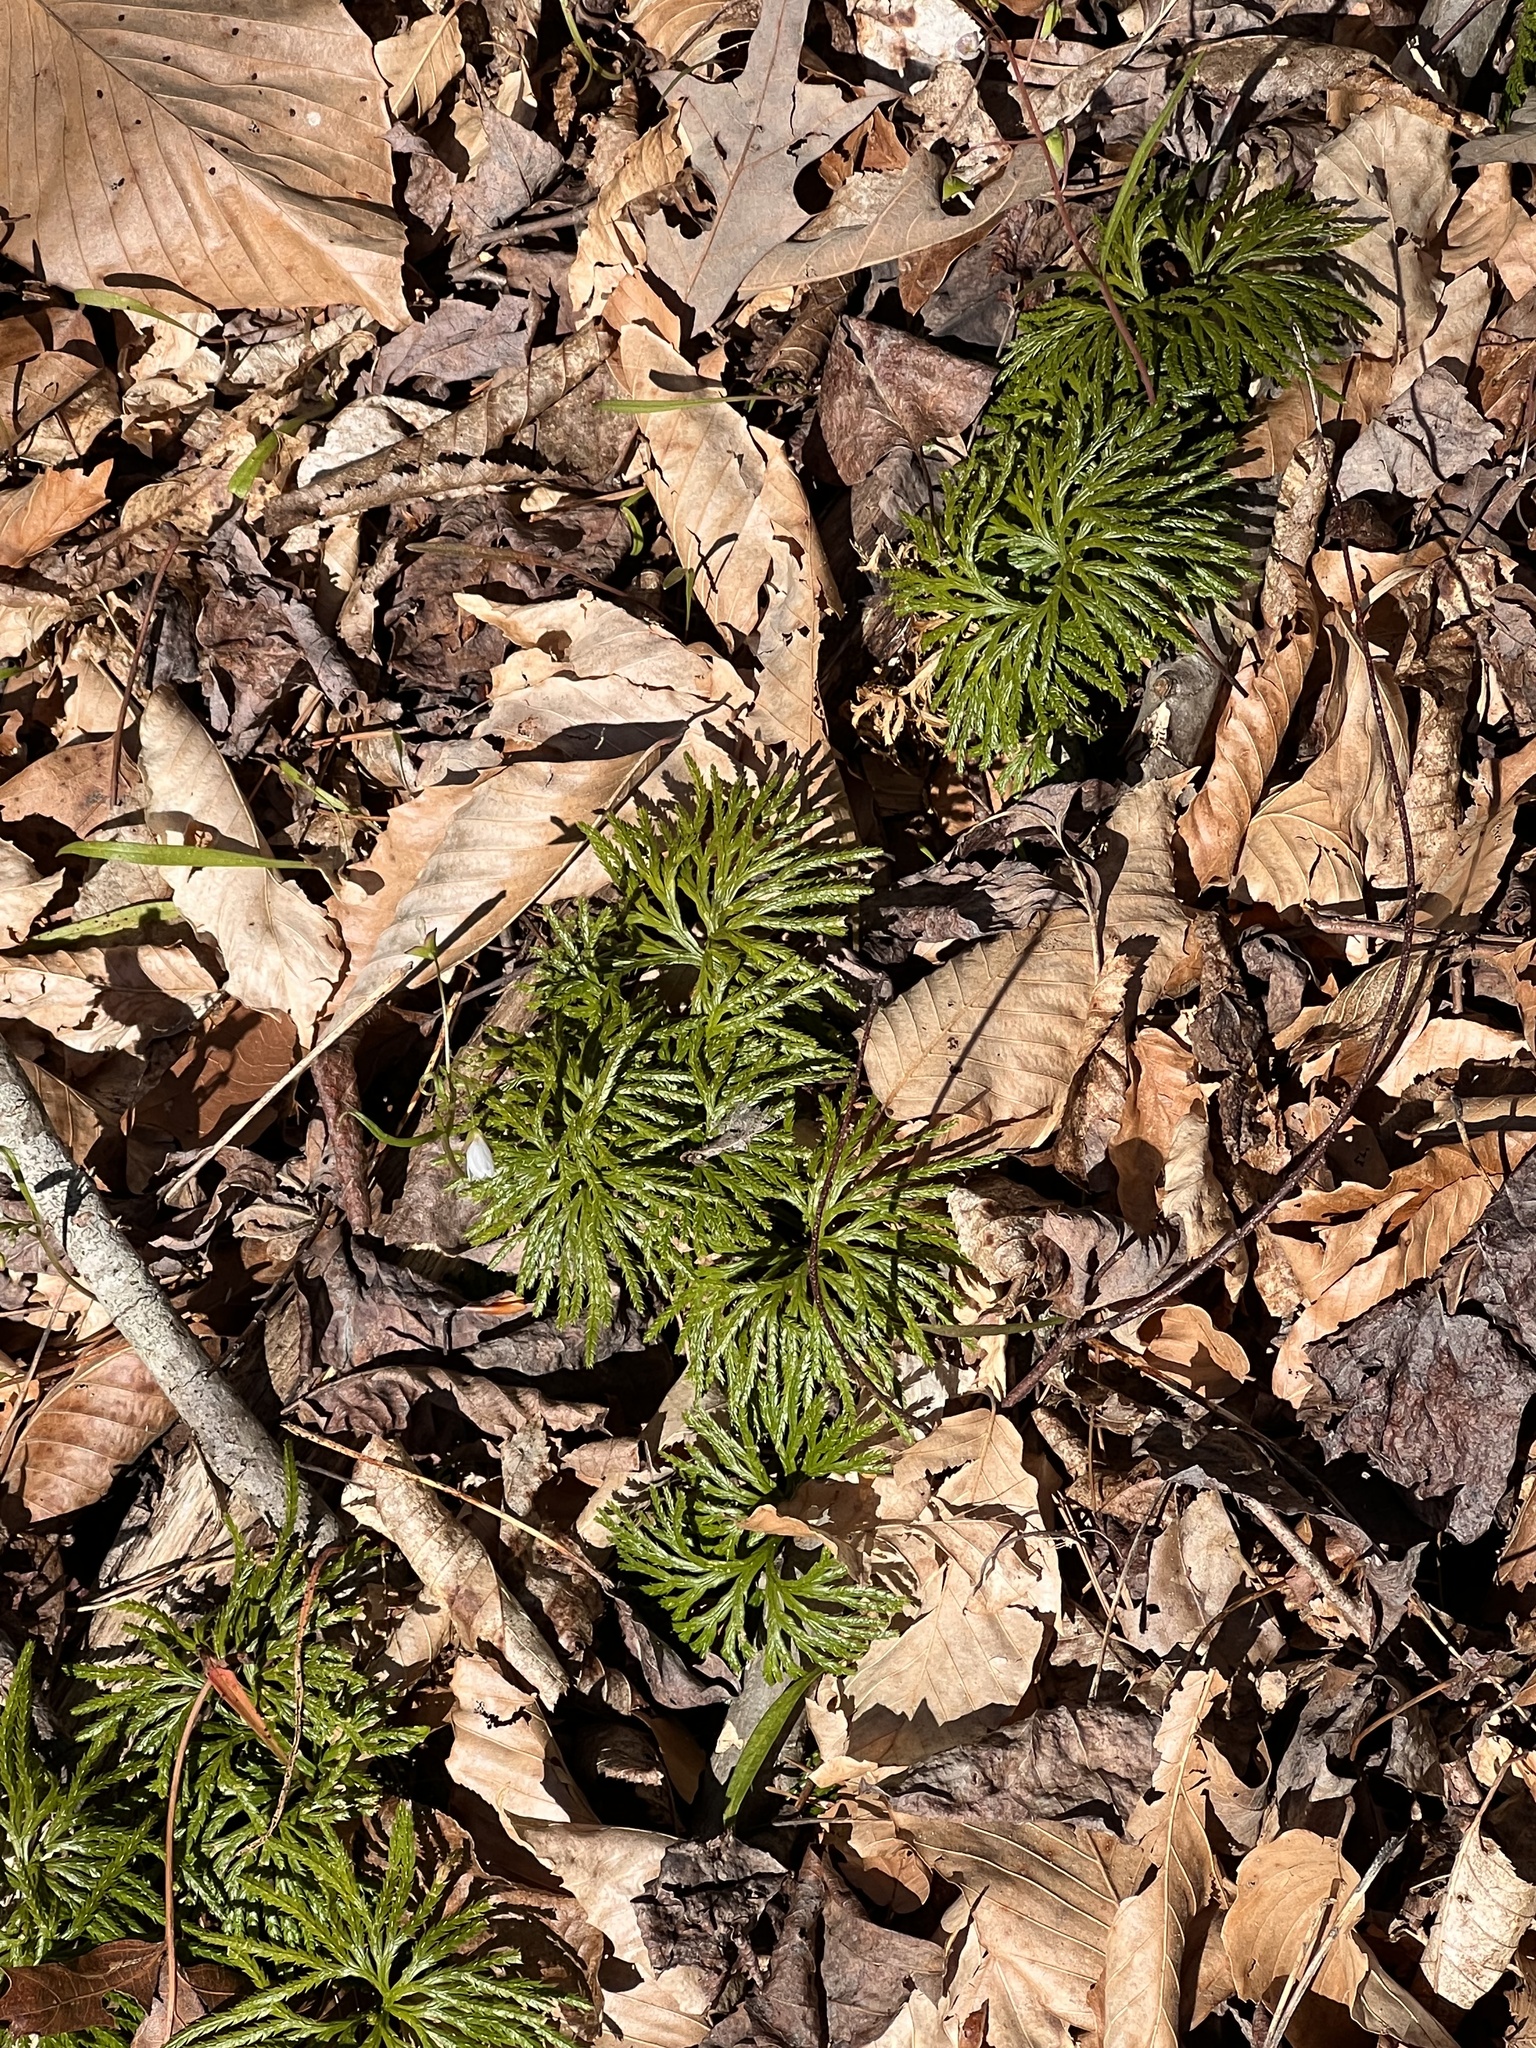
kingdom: Plantae
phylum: Tracheophyta
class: Lycopodiopsida
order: Lycopodiales
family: Lycopodiaceae
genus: Diphasiastrum
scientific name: Diphasiastrum digitatum
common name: Southern running-pine
